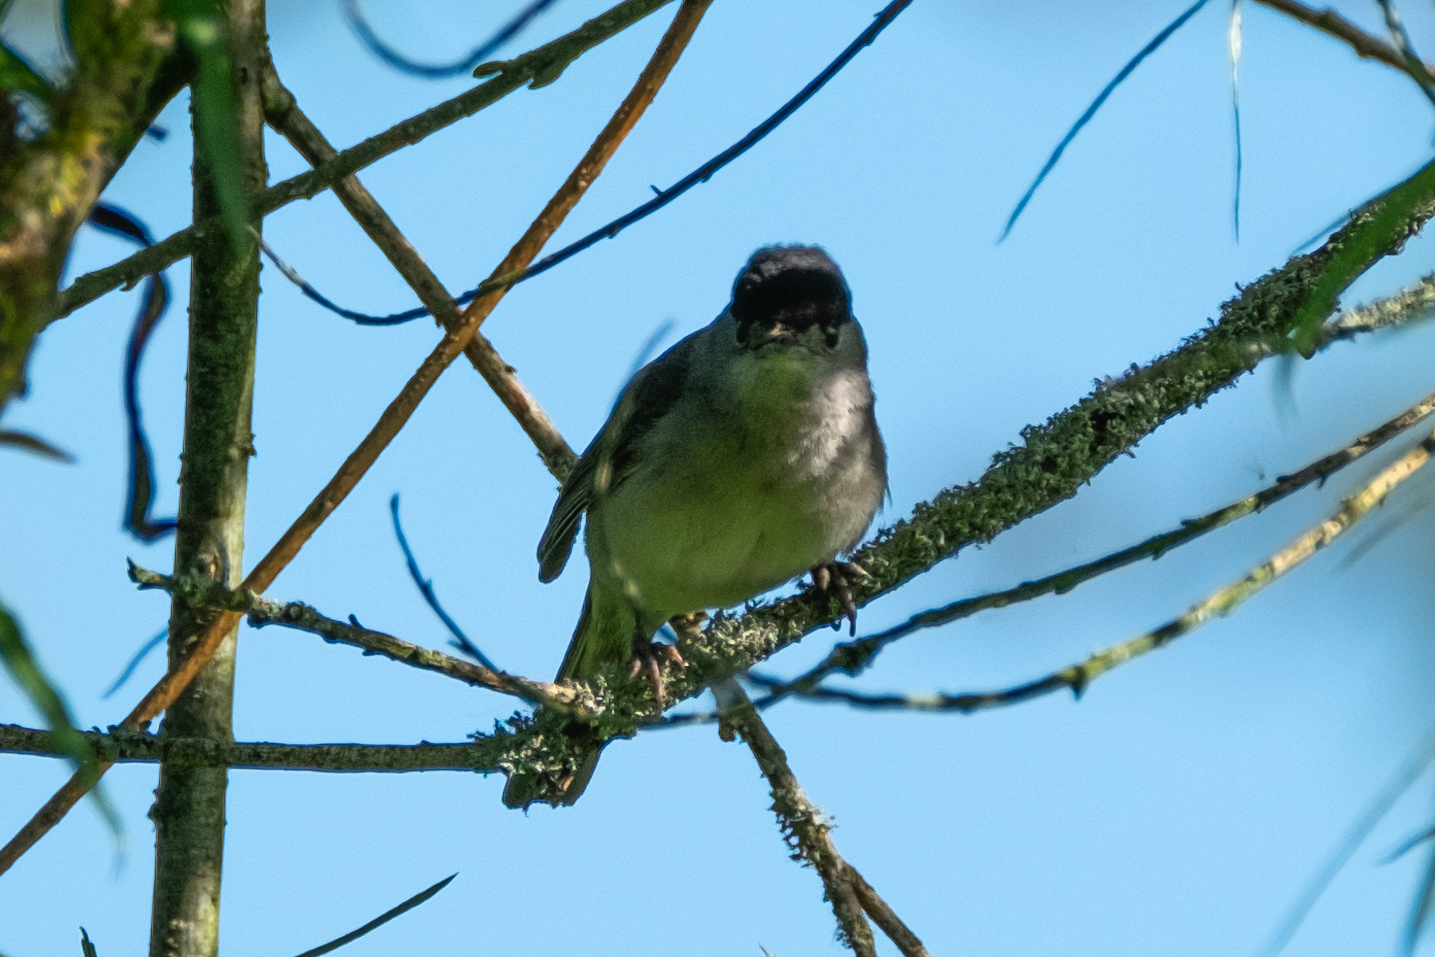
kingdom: Animalia
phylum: Chordata
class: Aves
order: Passeriformes
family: Sylviidae
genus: Sylvia
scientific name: Sylvia atricapilla
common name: Eurasian blackcap
